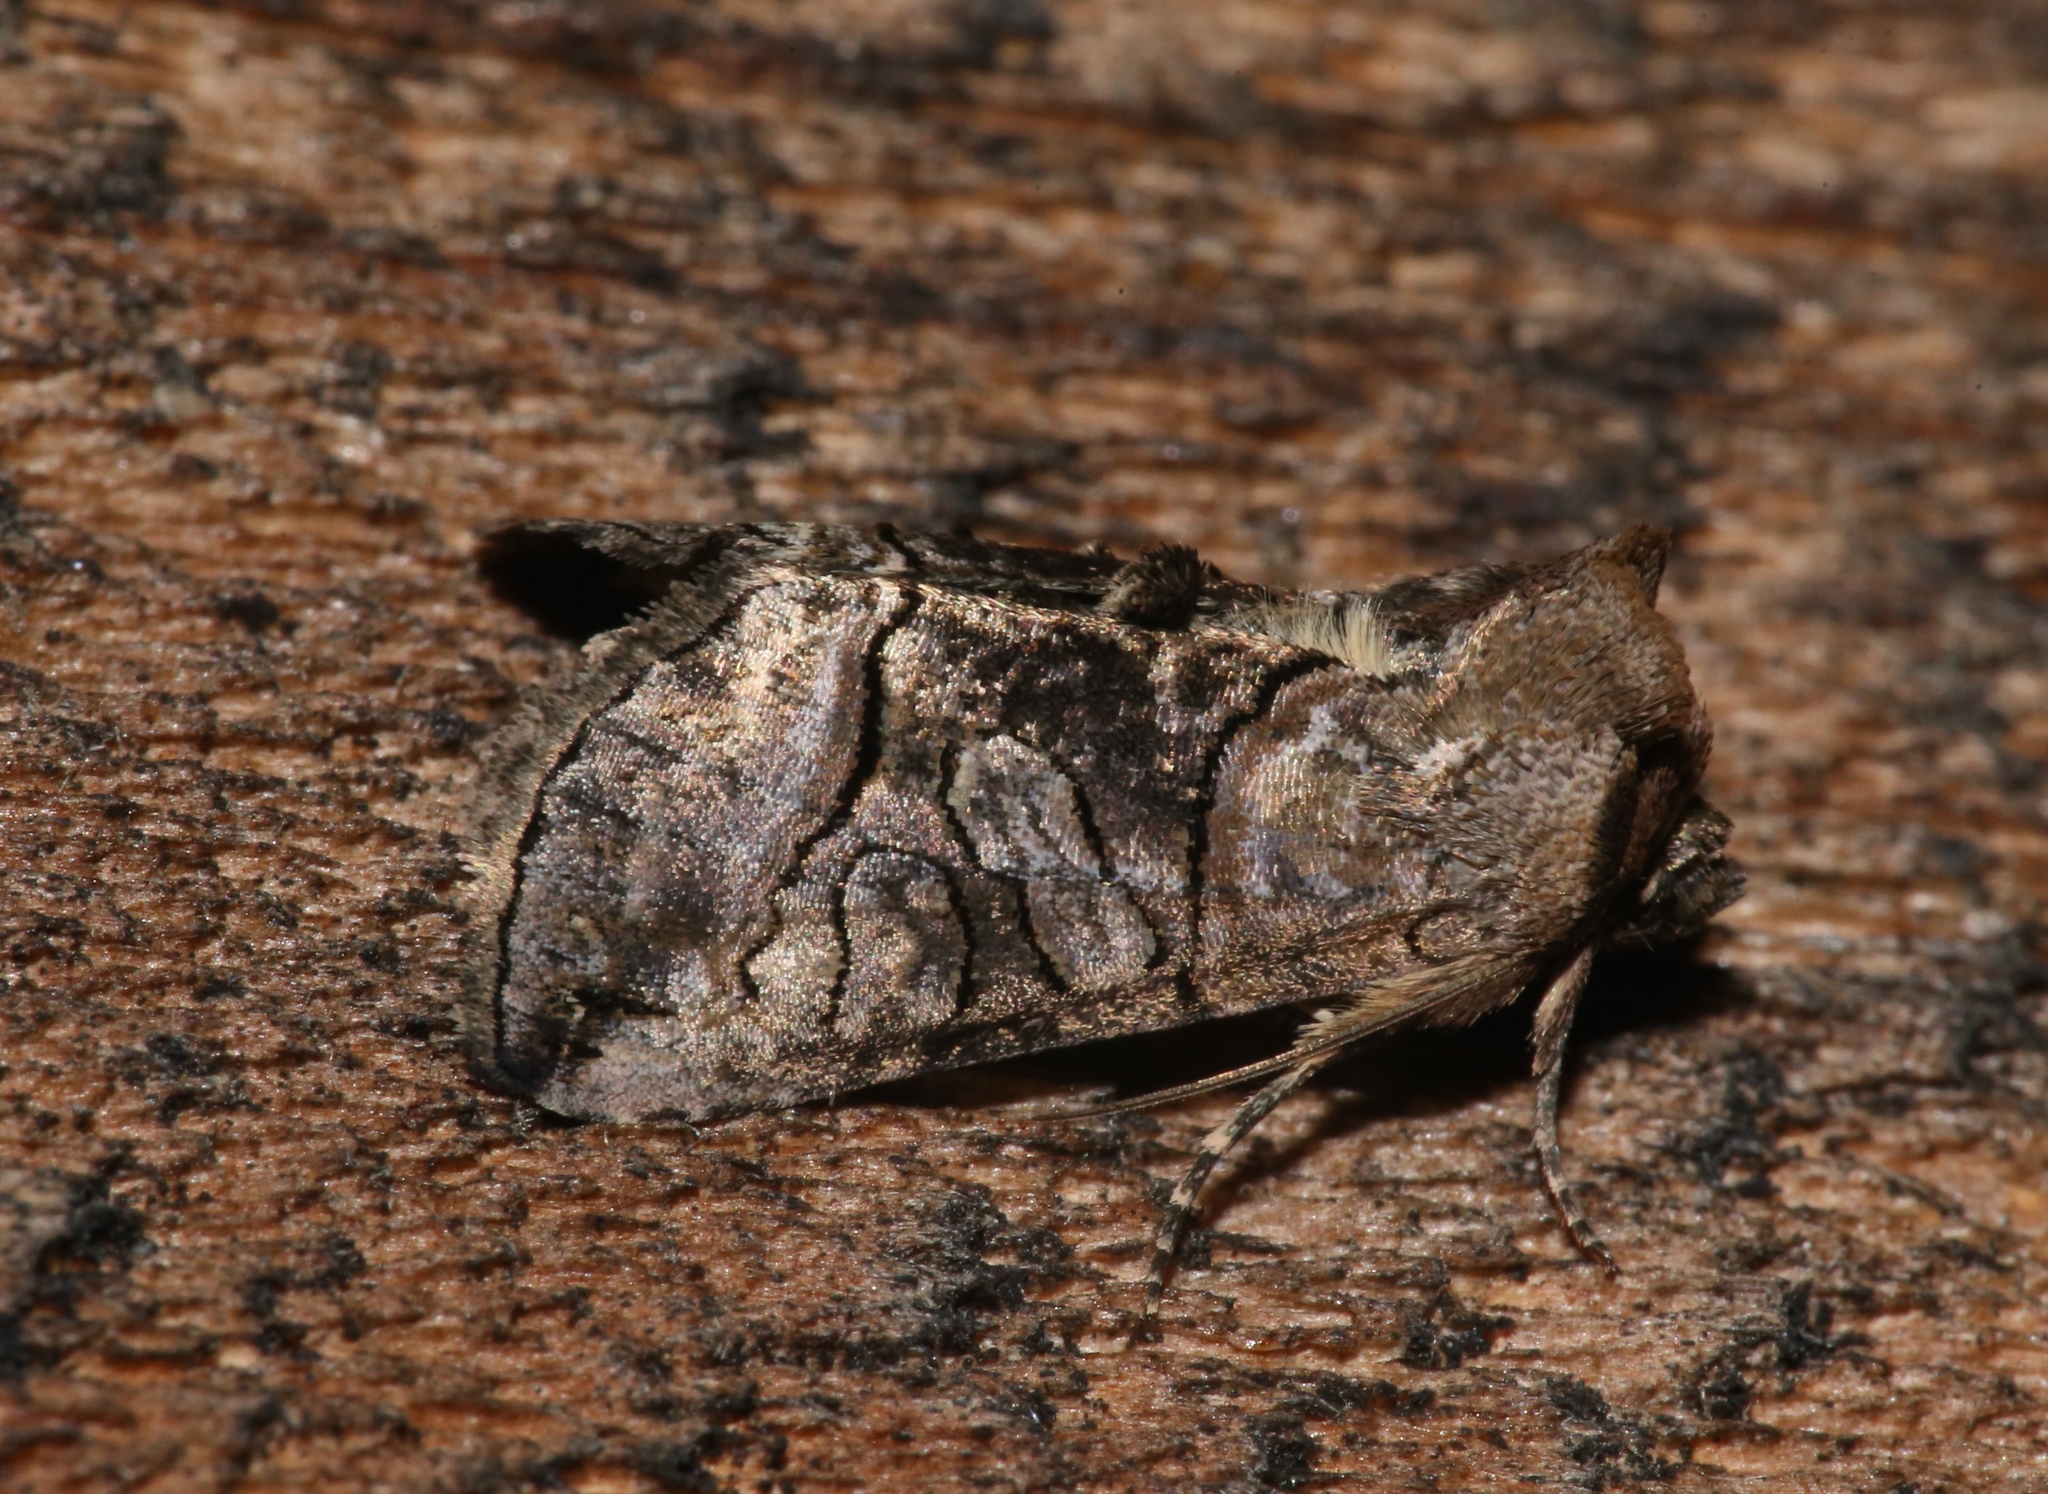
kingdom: Animalia
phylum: Arthropoda
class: Insecta
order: Lepidoptera
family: Noctuidae
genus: Abrostola
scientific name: Abrostola urentis
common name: Spectacled nettle moth
